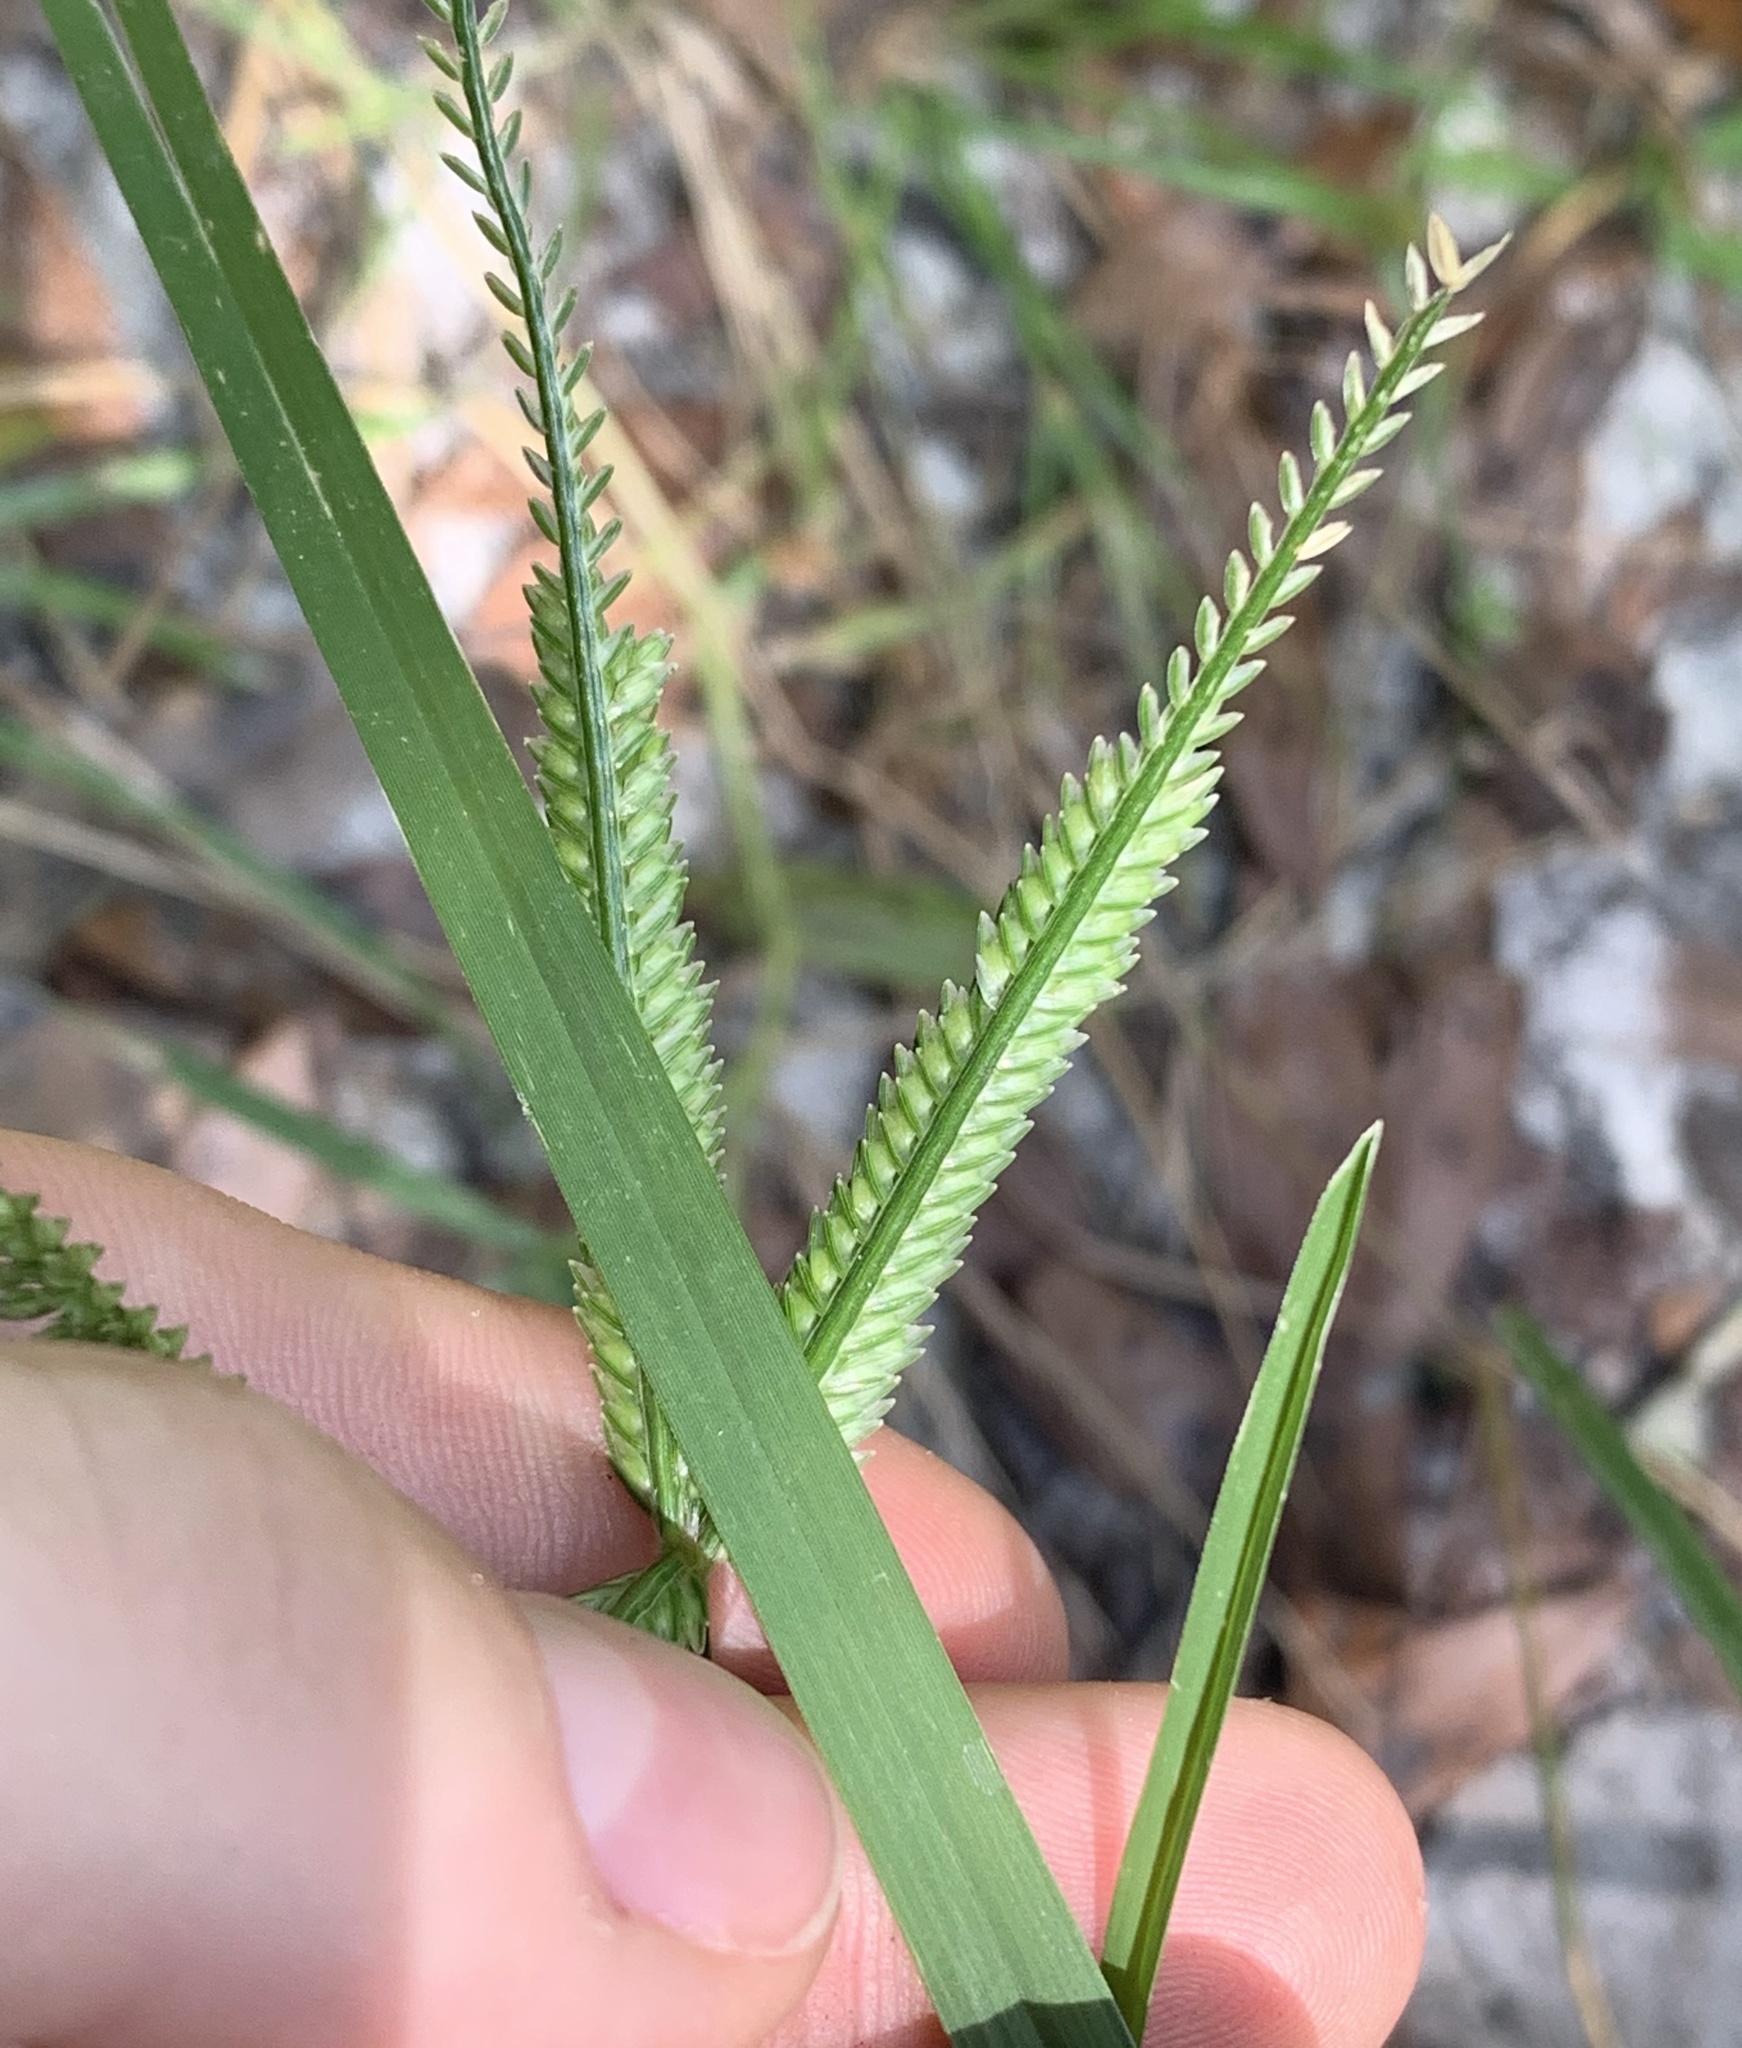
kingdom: Plantae
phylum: Tracheophyta
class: Liliopsida
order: Poales
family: Poaceae
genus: Eleusine
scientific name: Eleusine indica
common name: Yard-grass
